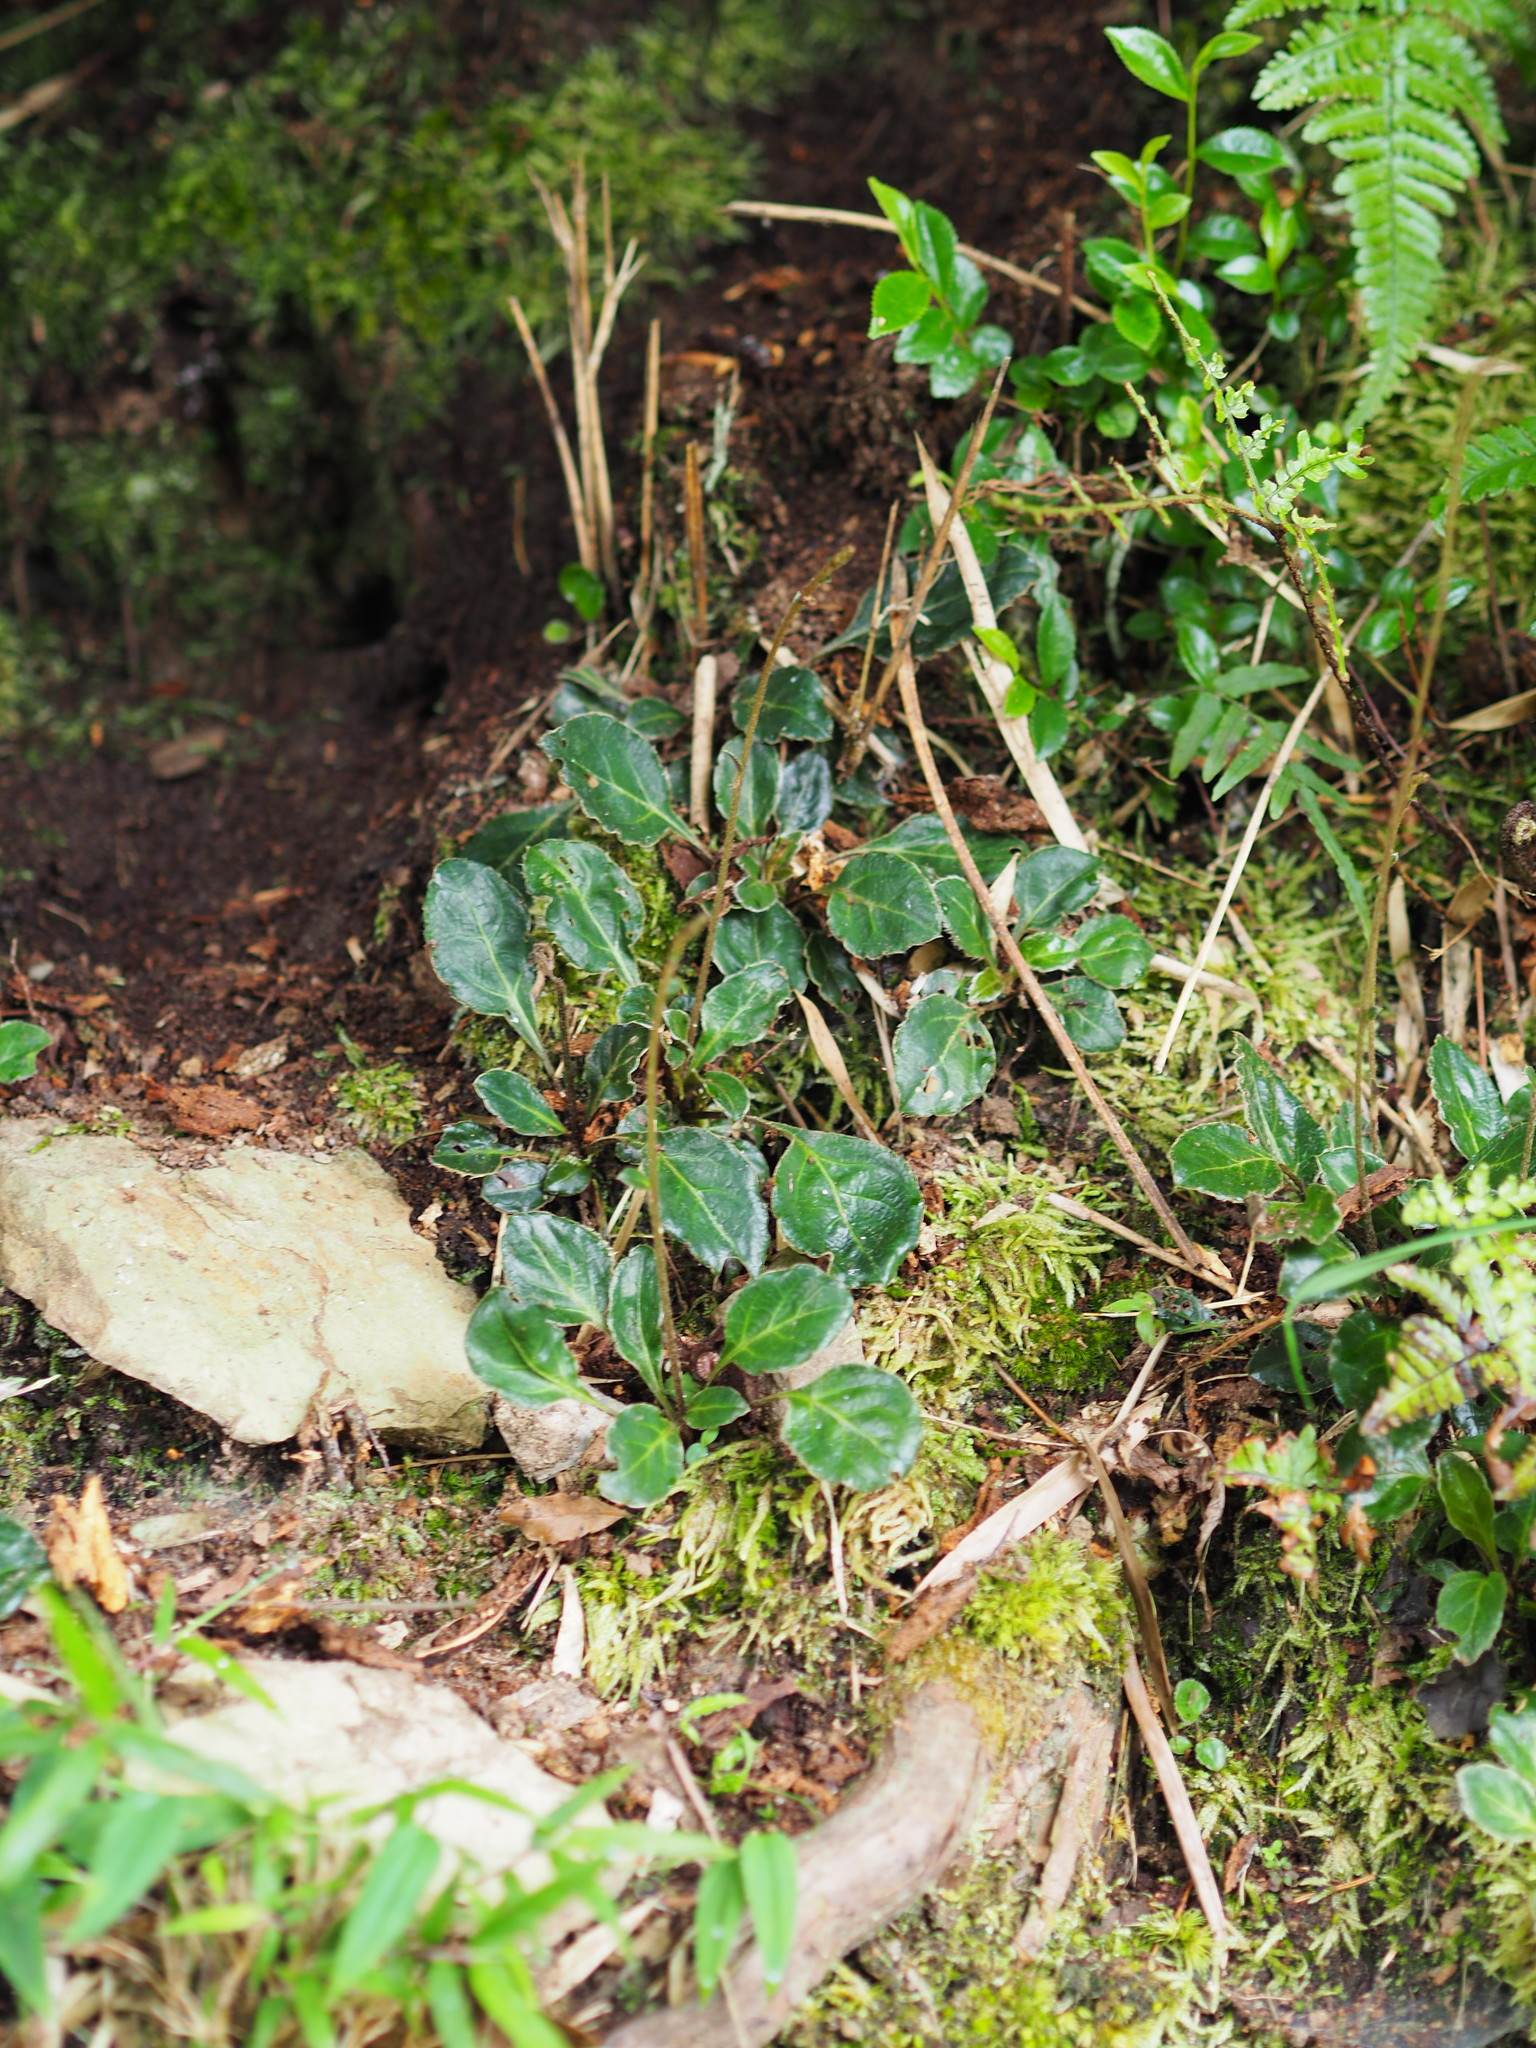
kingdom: Plantae
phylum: Tracheophyta
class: Magnoliopsida
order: Asterales
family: Asteraceae
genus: Ainsliaea
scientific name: Ainsliaea henryi
